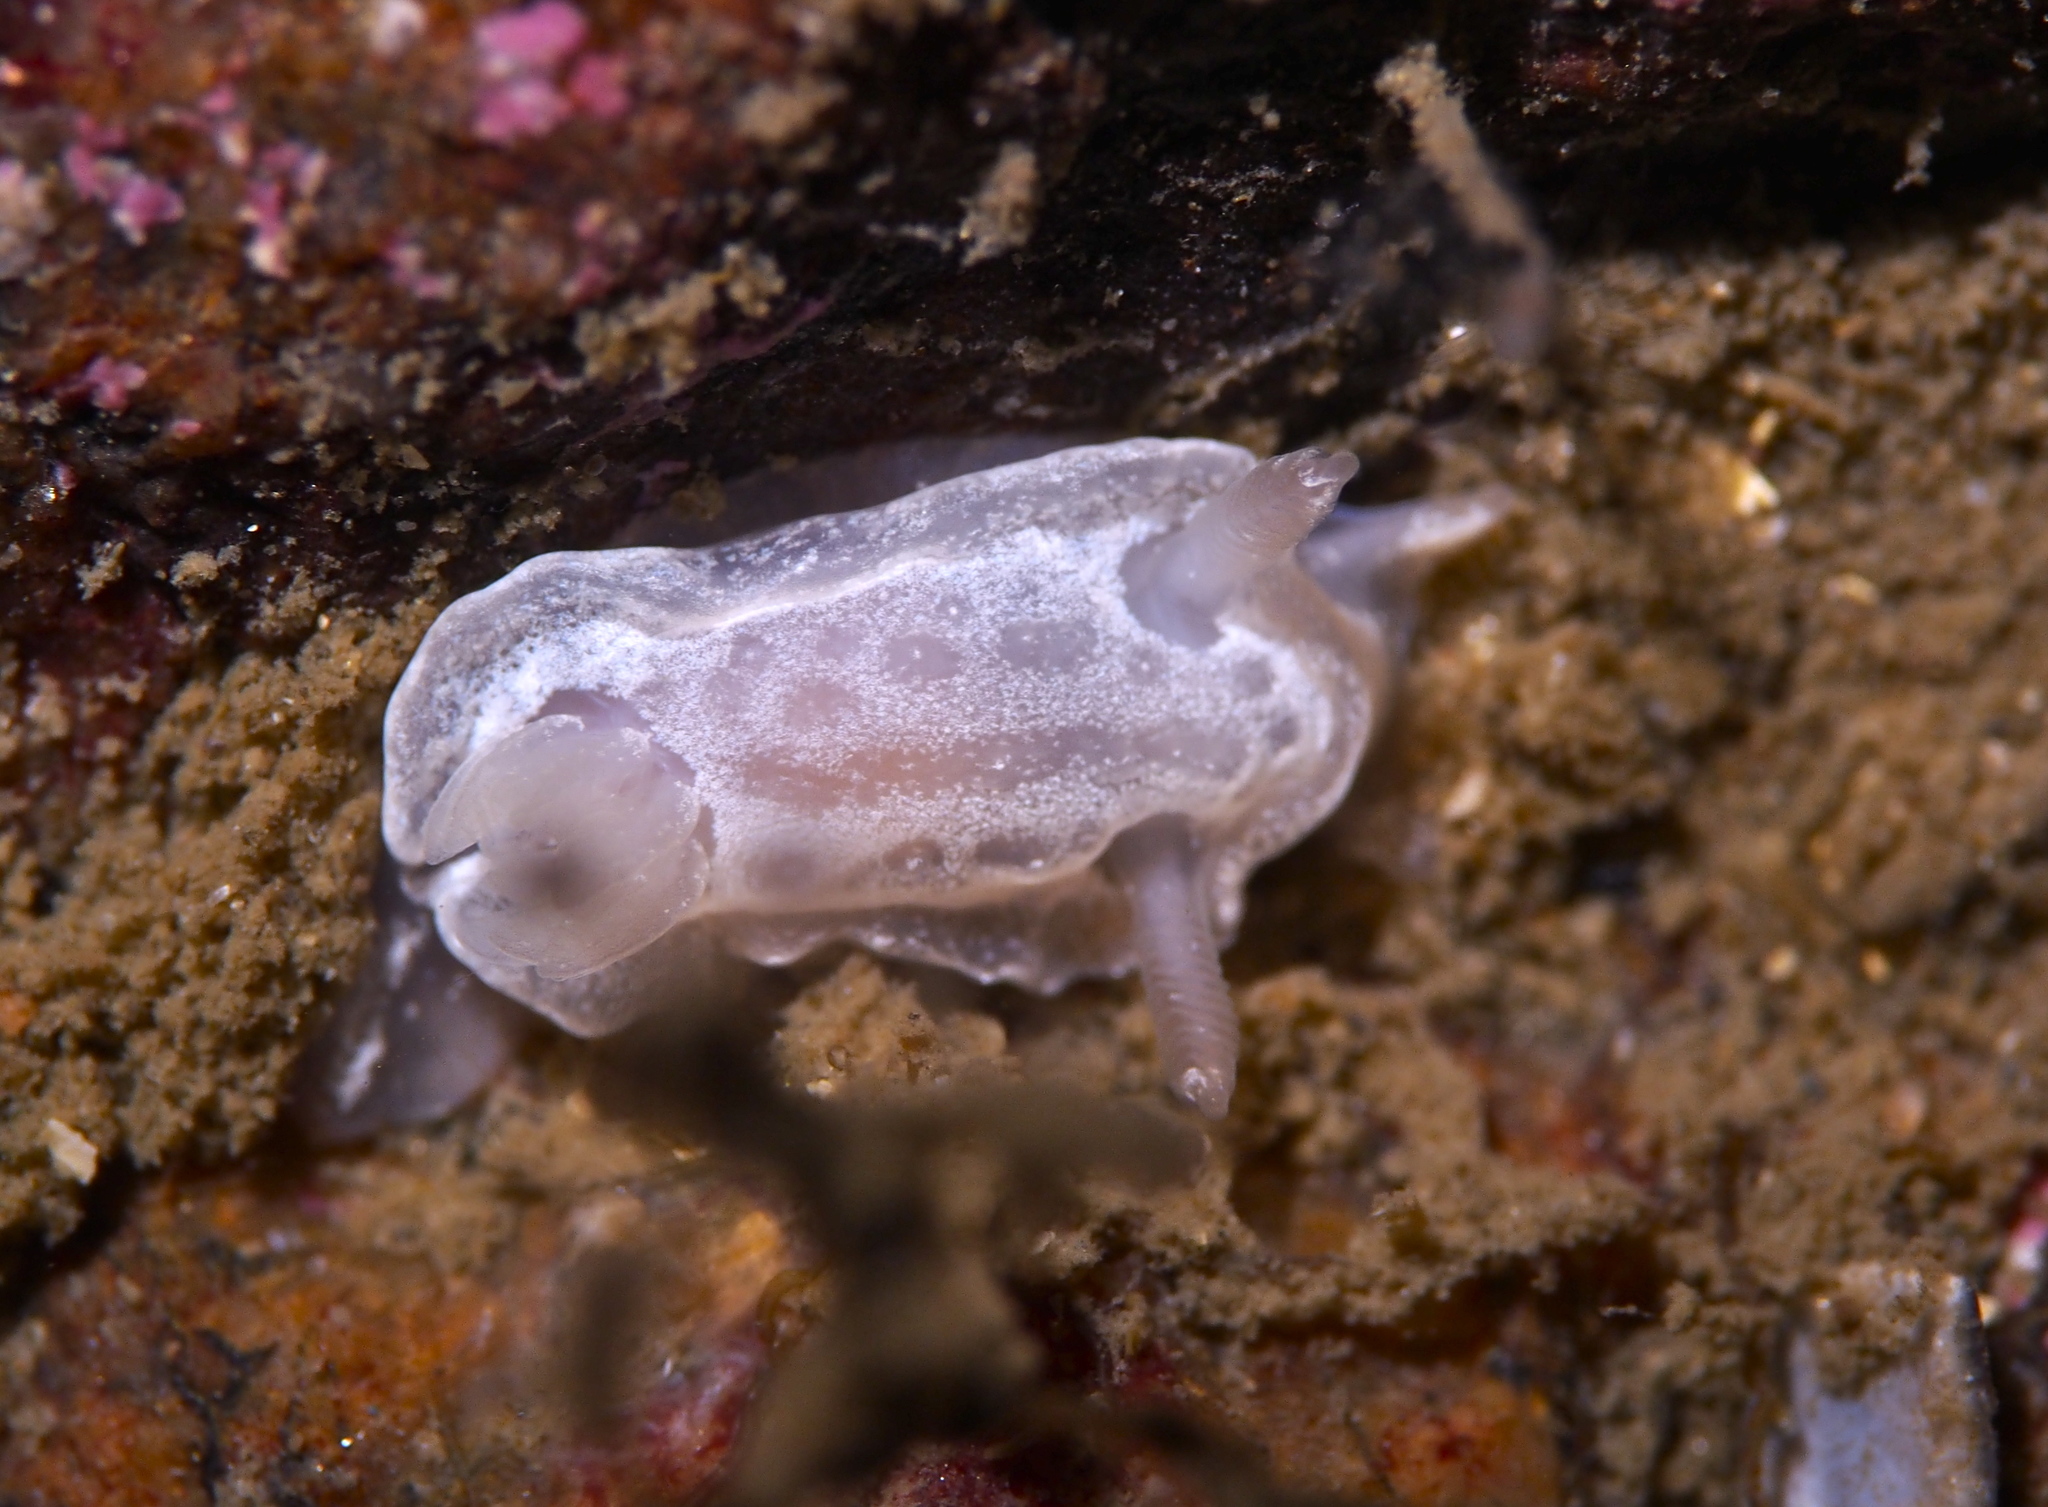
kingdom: Animalia
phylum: Mollusca
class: Gastropoda
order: Nudibranchia
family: Goniodorididae
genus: Okenia
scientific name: Okenia
